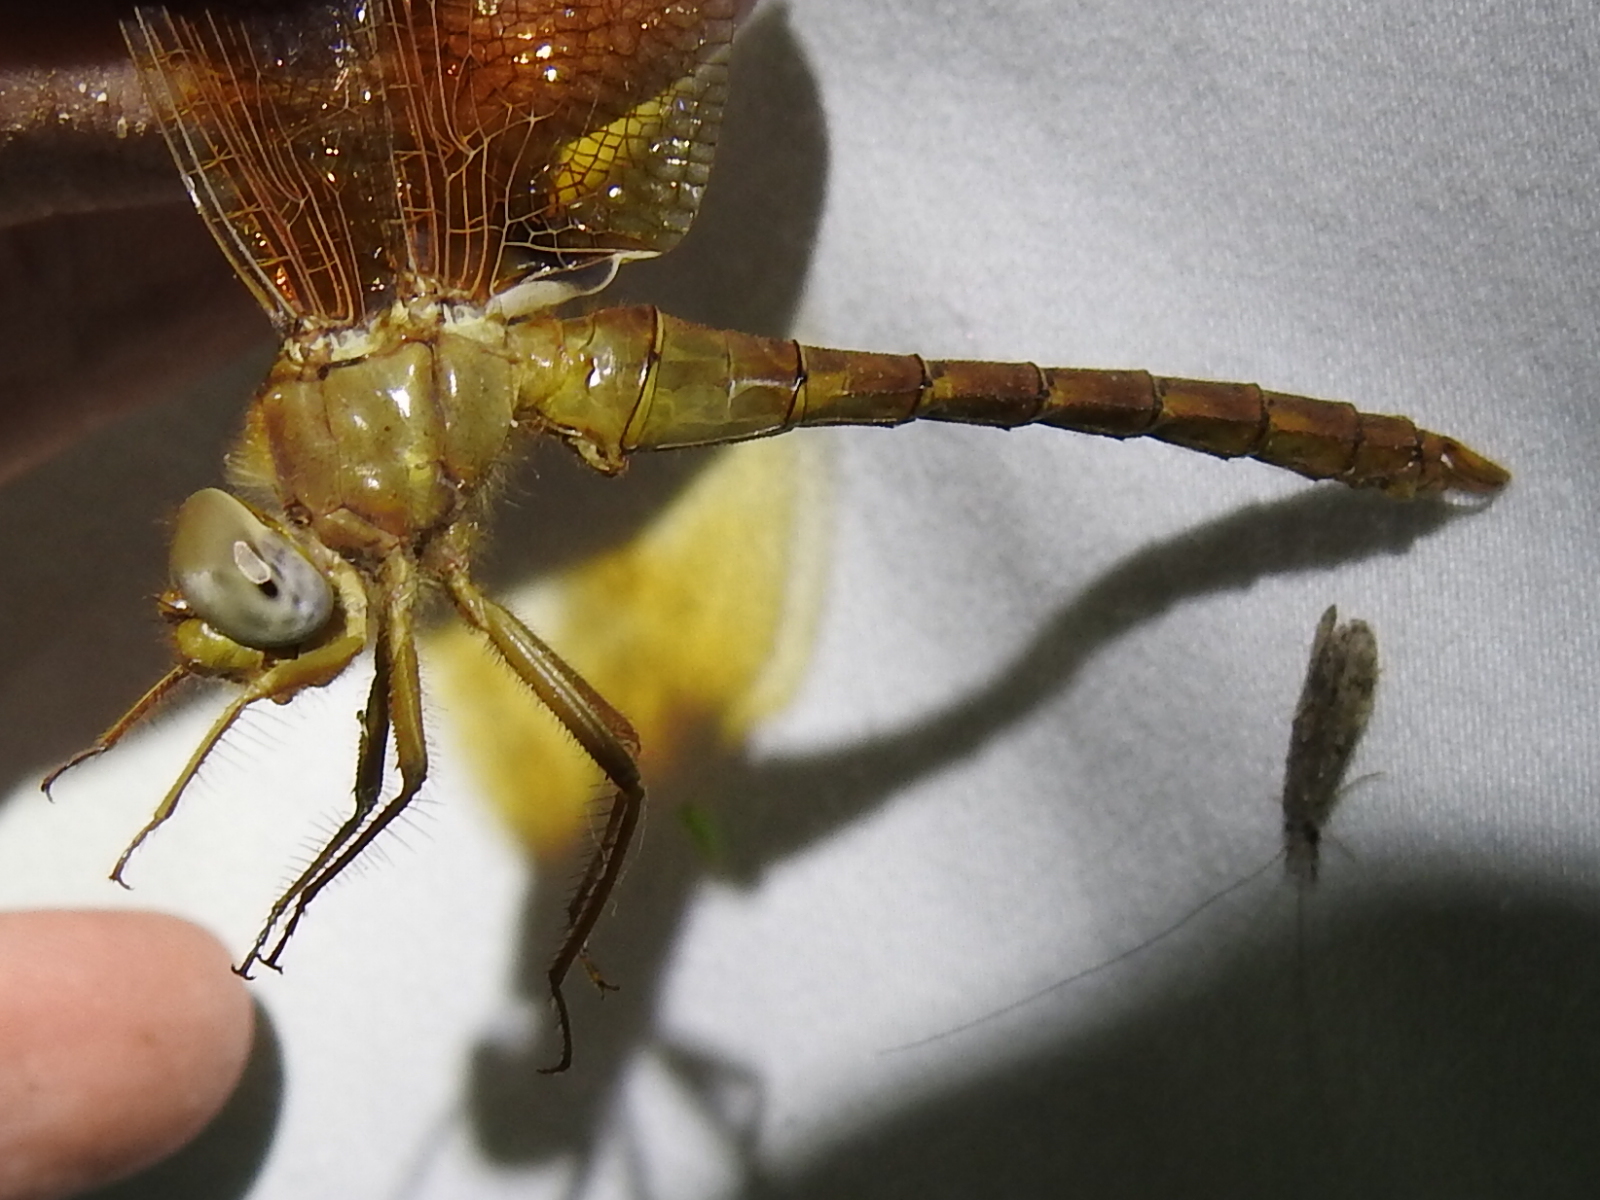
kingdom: Animalia
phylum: Arthropoda
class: Insecta
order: Odonata
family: Corduliidae
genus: Neurocordulia
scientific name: Neurocordulia xanthosoma
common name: Orange shadowdragon
